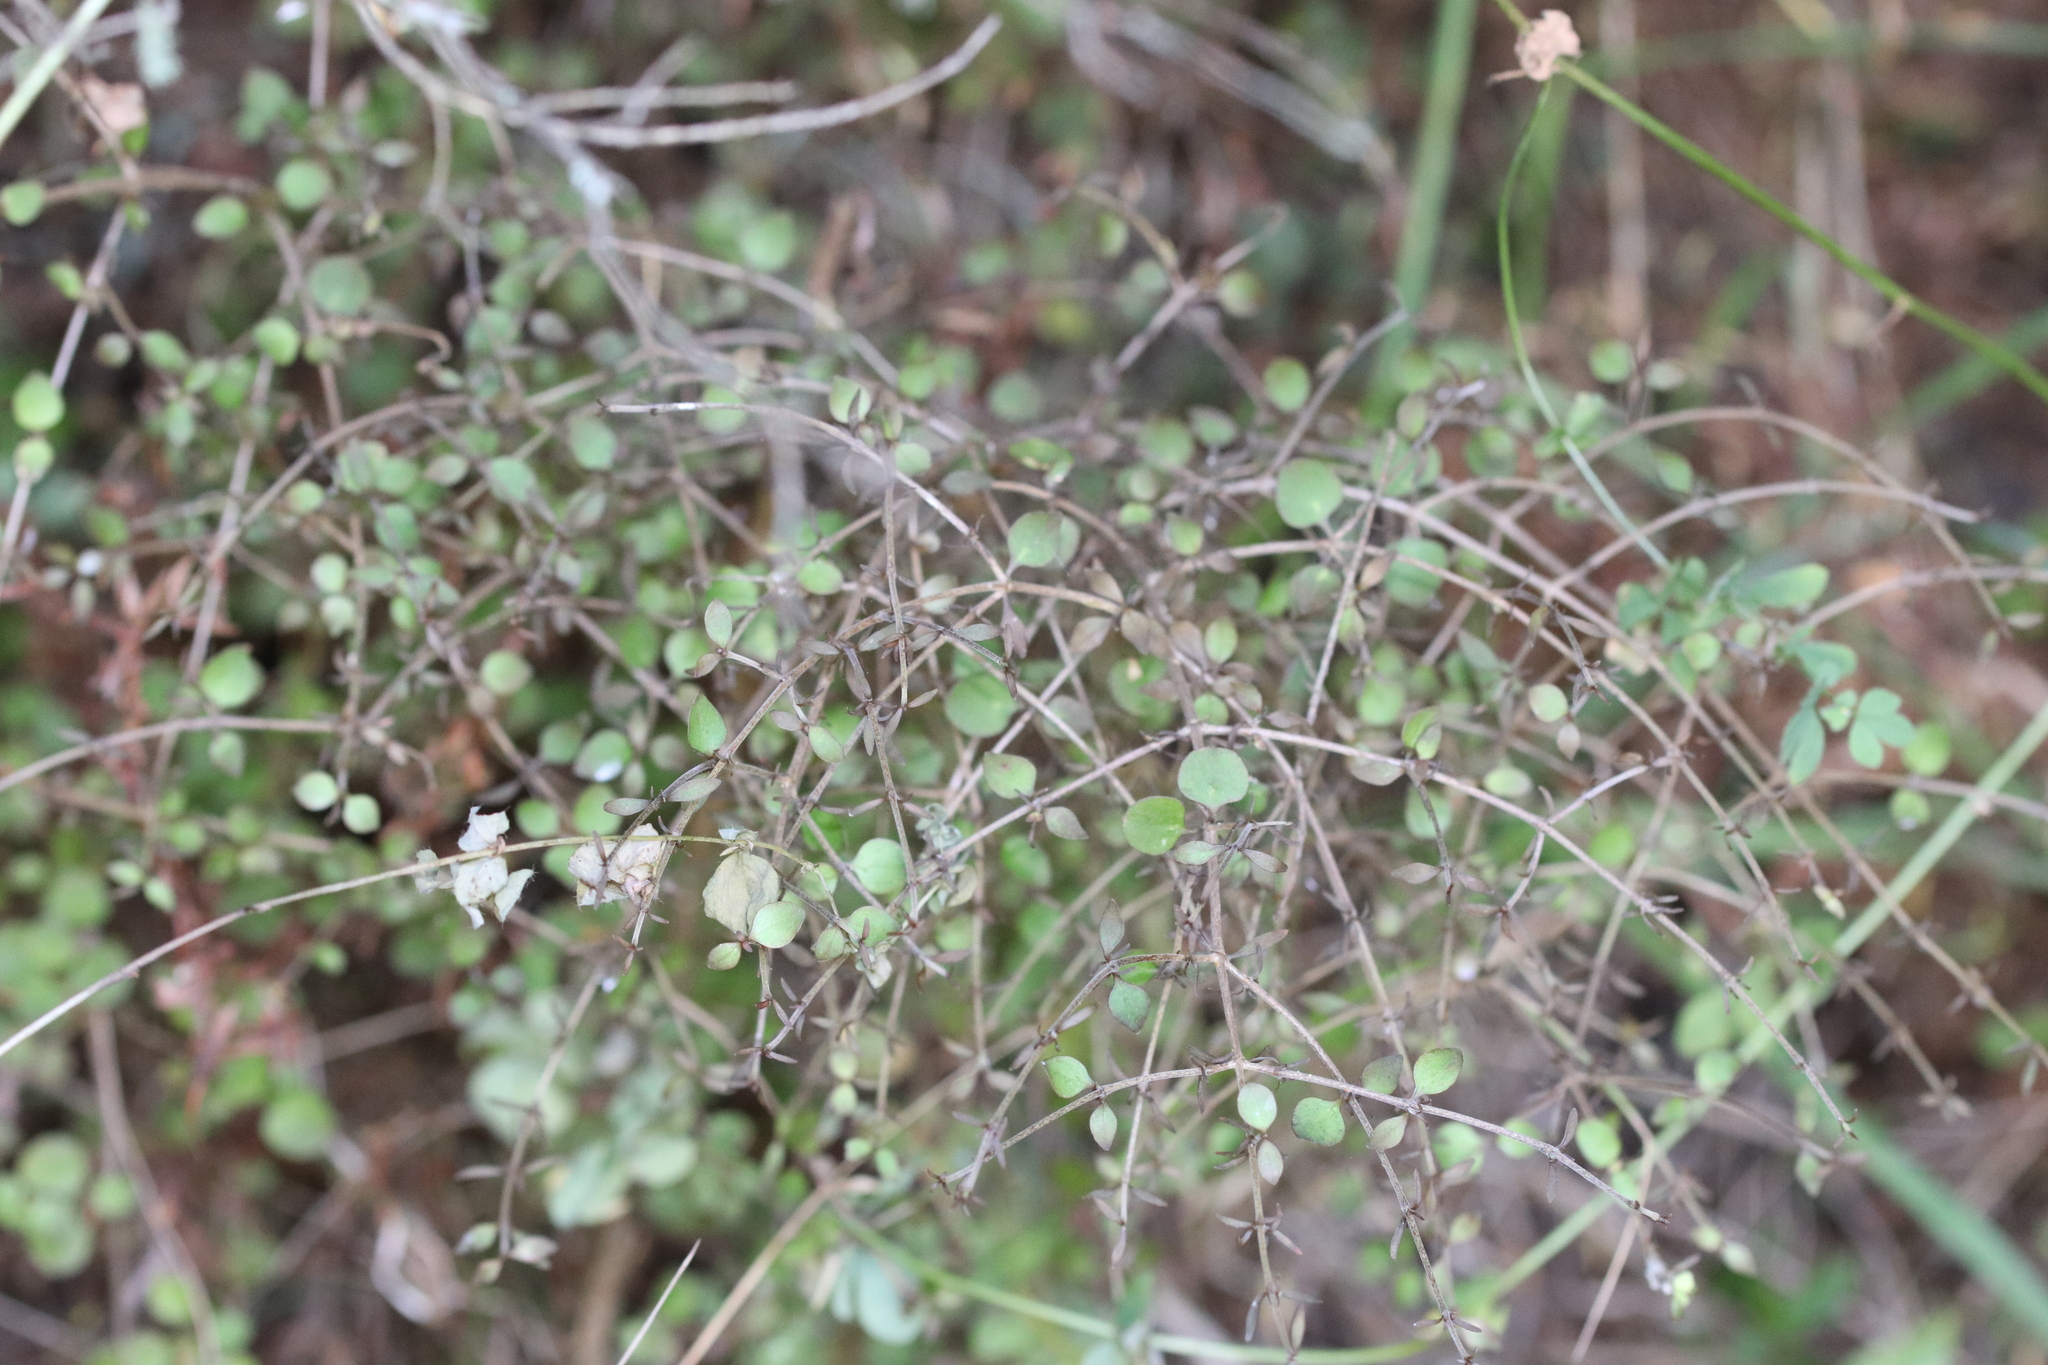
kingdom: Plantae
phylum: Tracheophyta
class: Magnoliopsida
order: Gentianales
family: Rubiaceae
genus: Coprosma
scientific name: Coprosma rhamnoides
